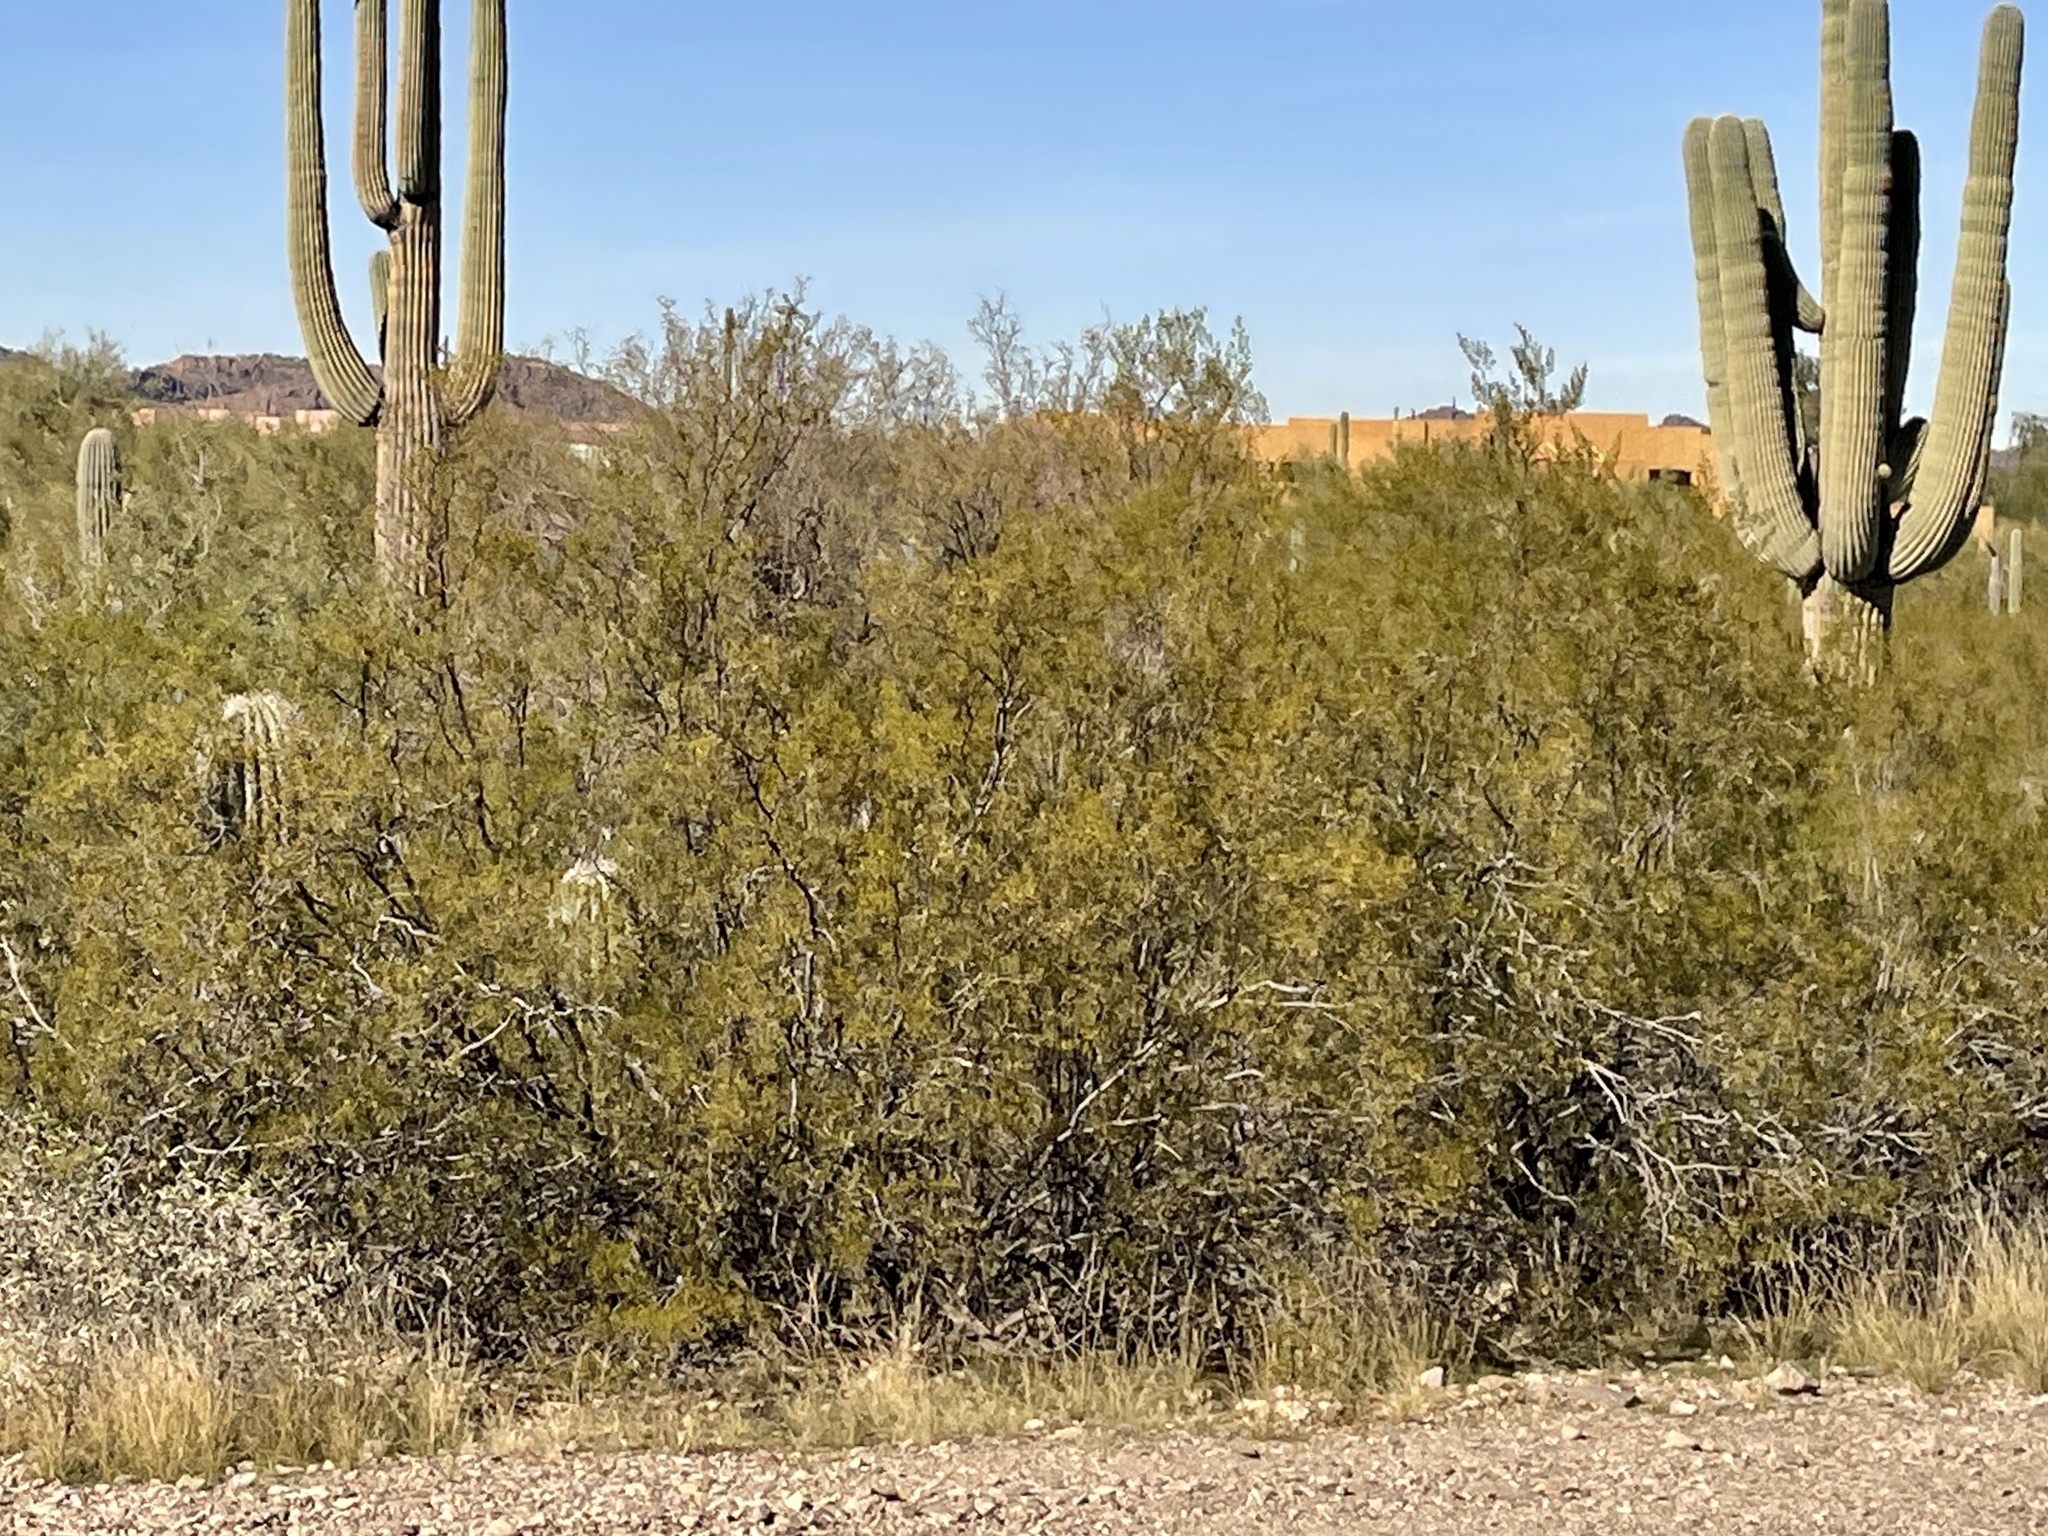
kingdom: Plantae
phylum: Tracheophyta
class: Magnoliopsida
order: Zygophyllales
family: Zygophyllaceae
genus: Larrea
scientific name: Larrea tridentata
